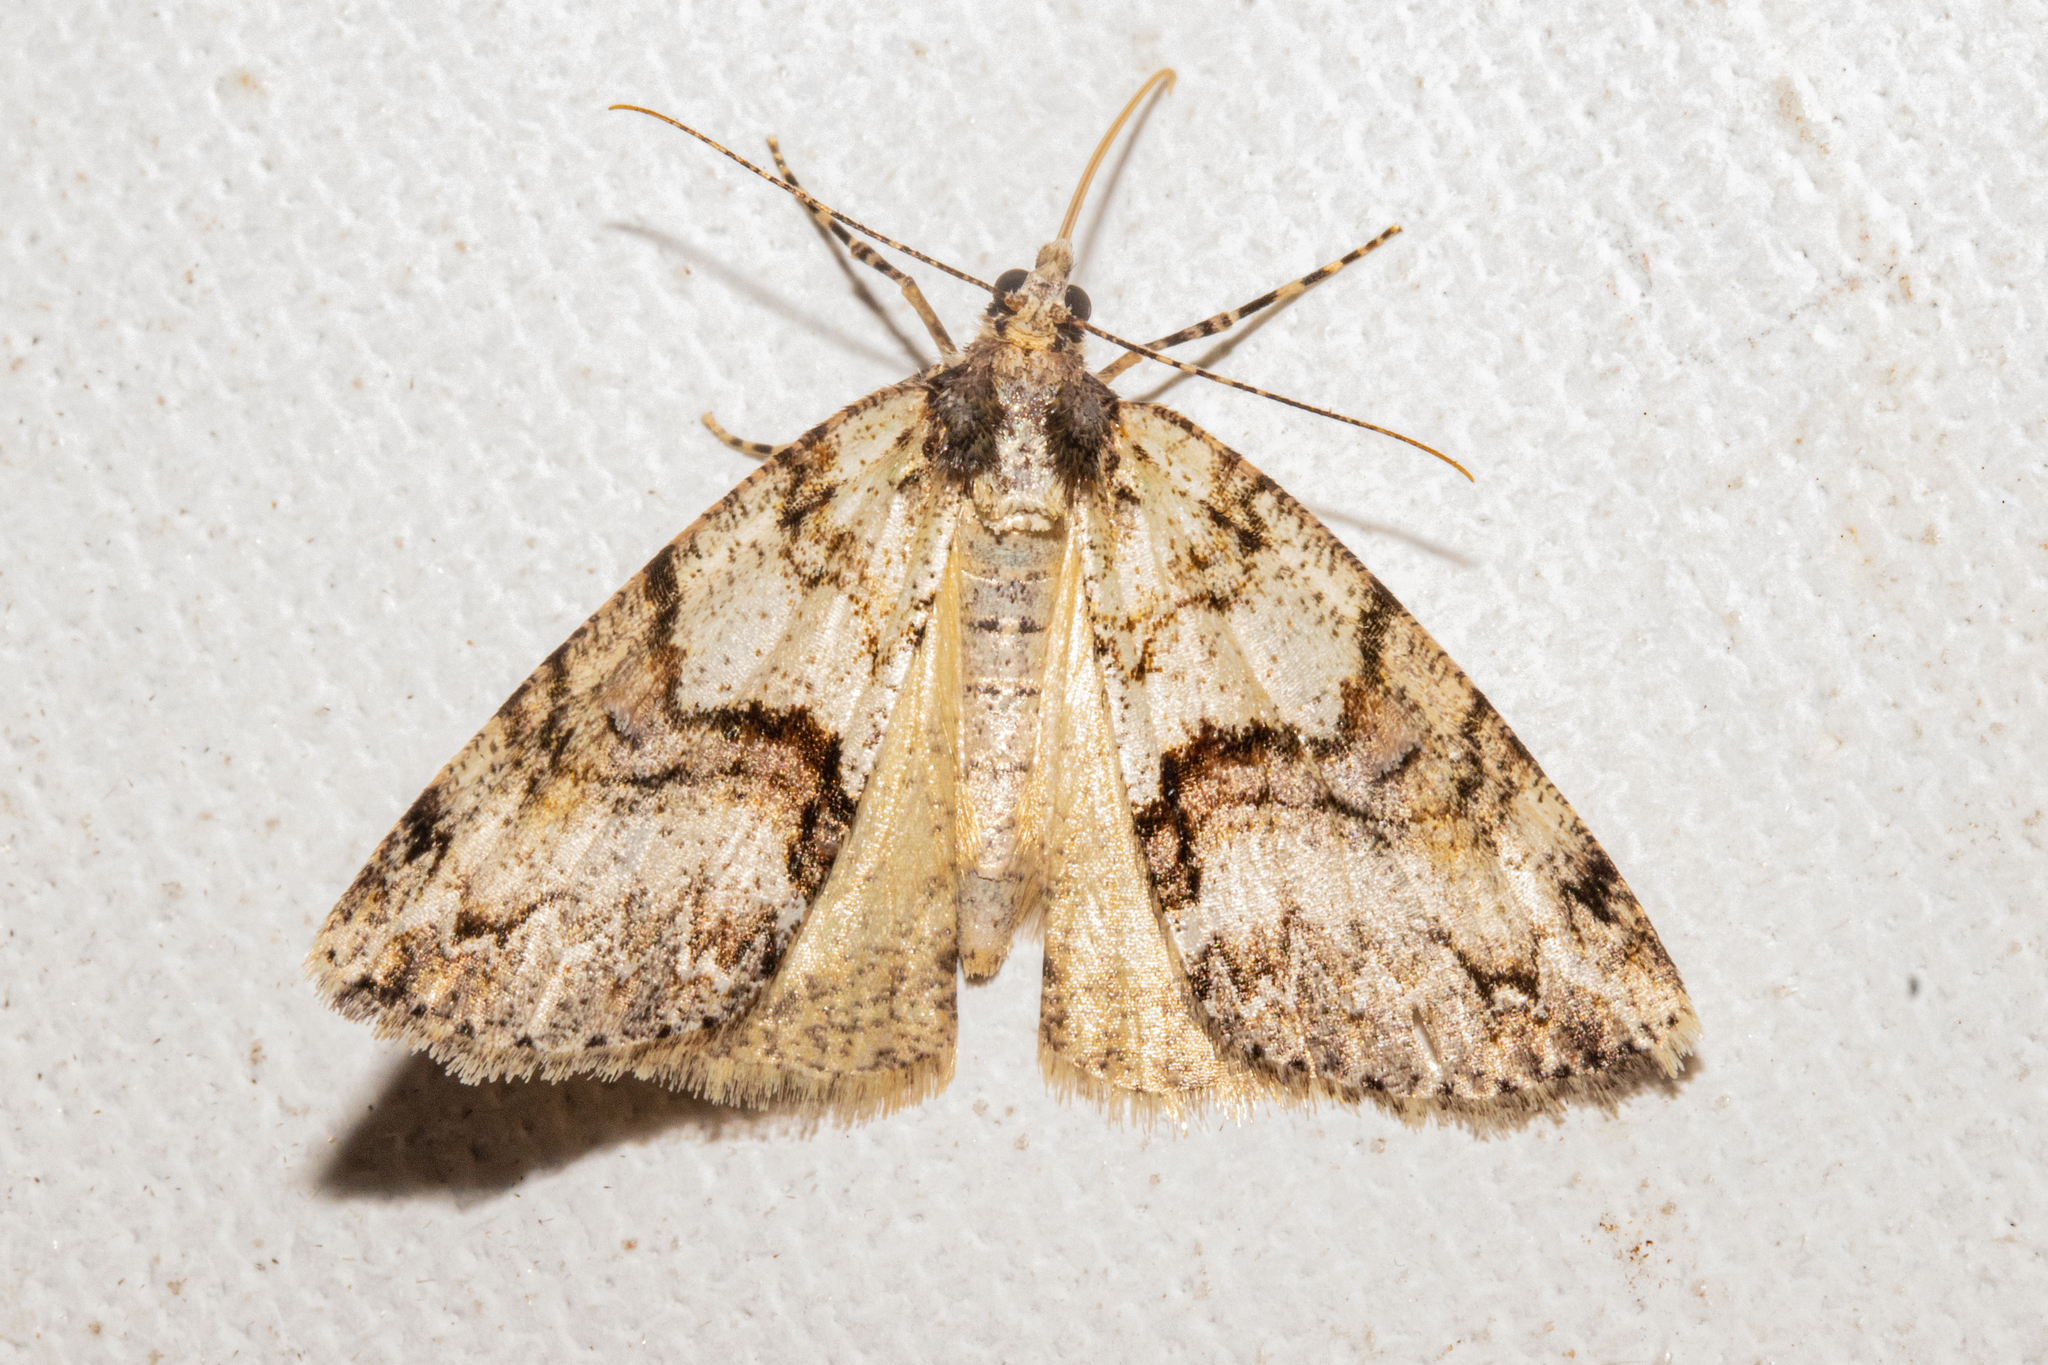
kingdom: Animalia
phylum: Arthropoda
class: Insecta
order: Lepidoptera
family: Geometridae
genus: Pseudocoremia
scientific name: Pseudocoremia suavis
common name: Common forest looper
